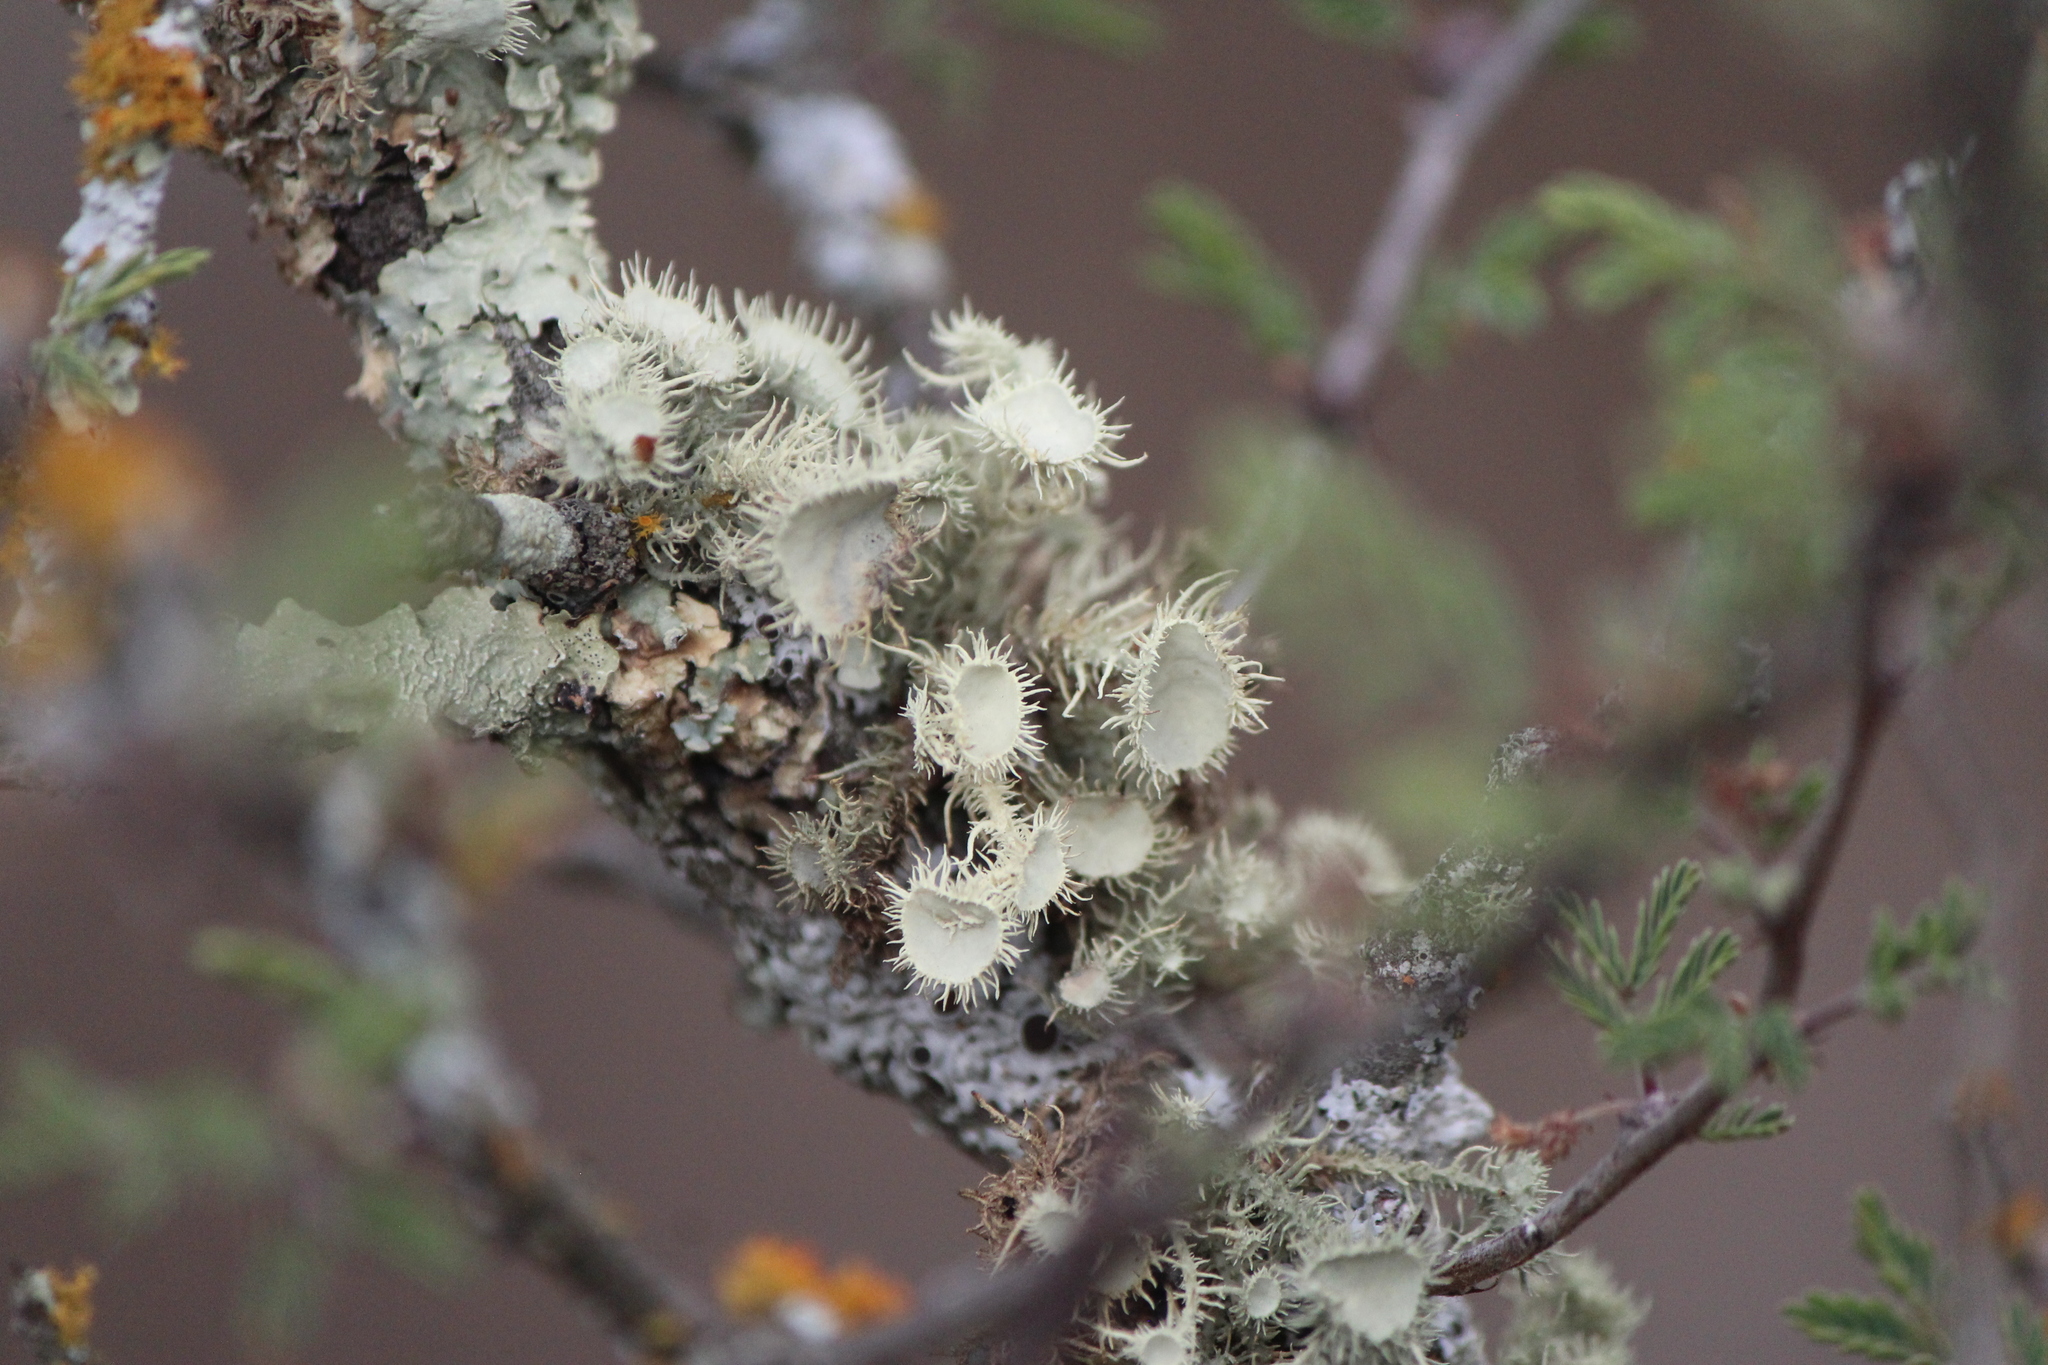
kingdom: Fungi
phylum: Ascomycota
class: Lecanoromycetes
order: Lecanorales
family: Parmeliaceae
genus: Usnea
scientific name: Usnea strigosa
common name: Bushy beard lichen
